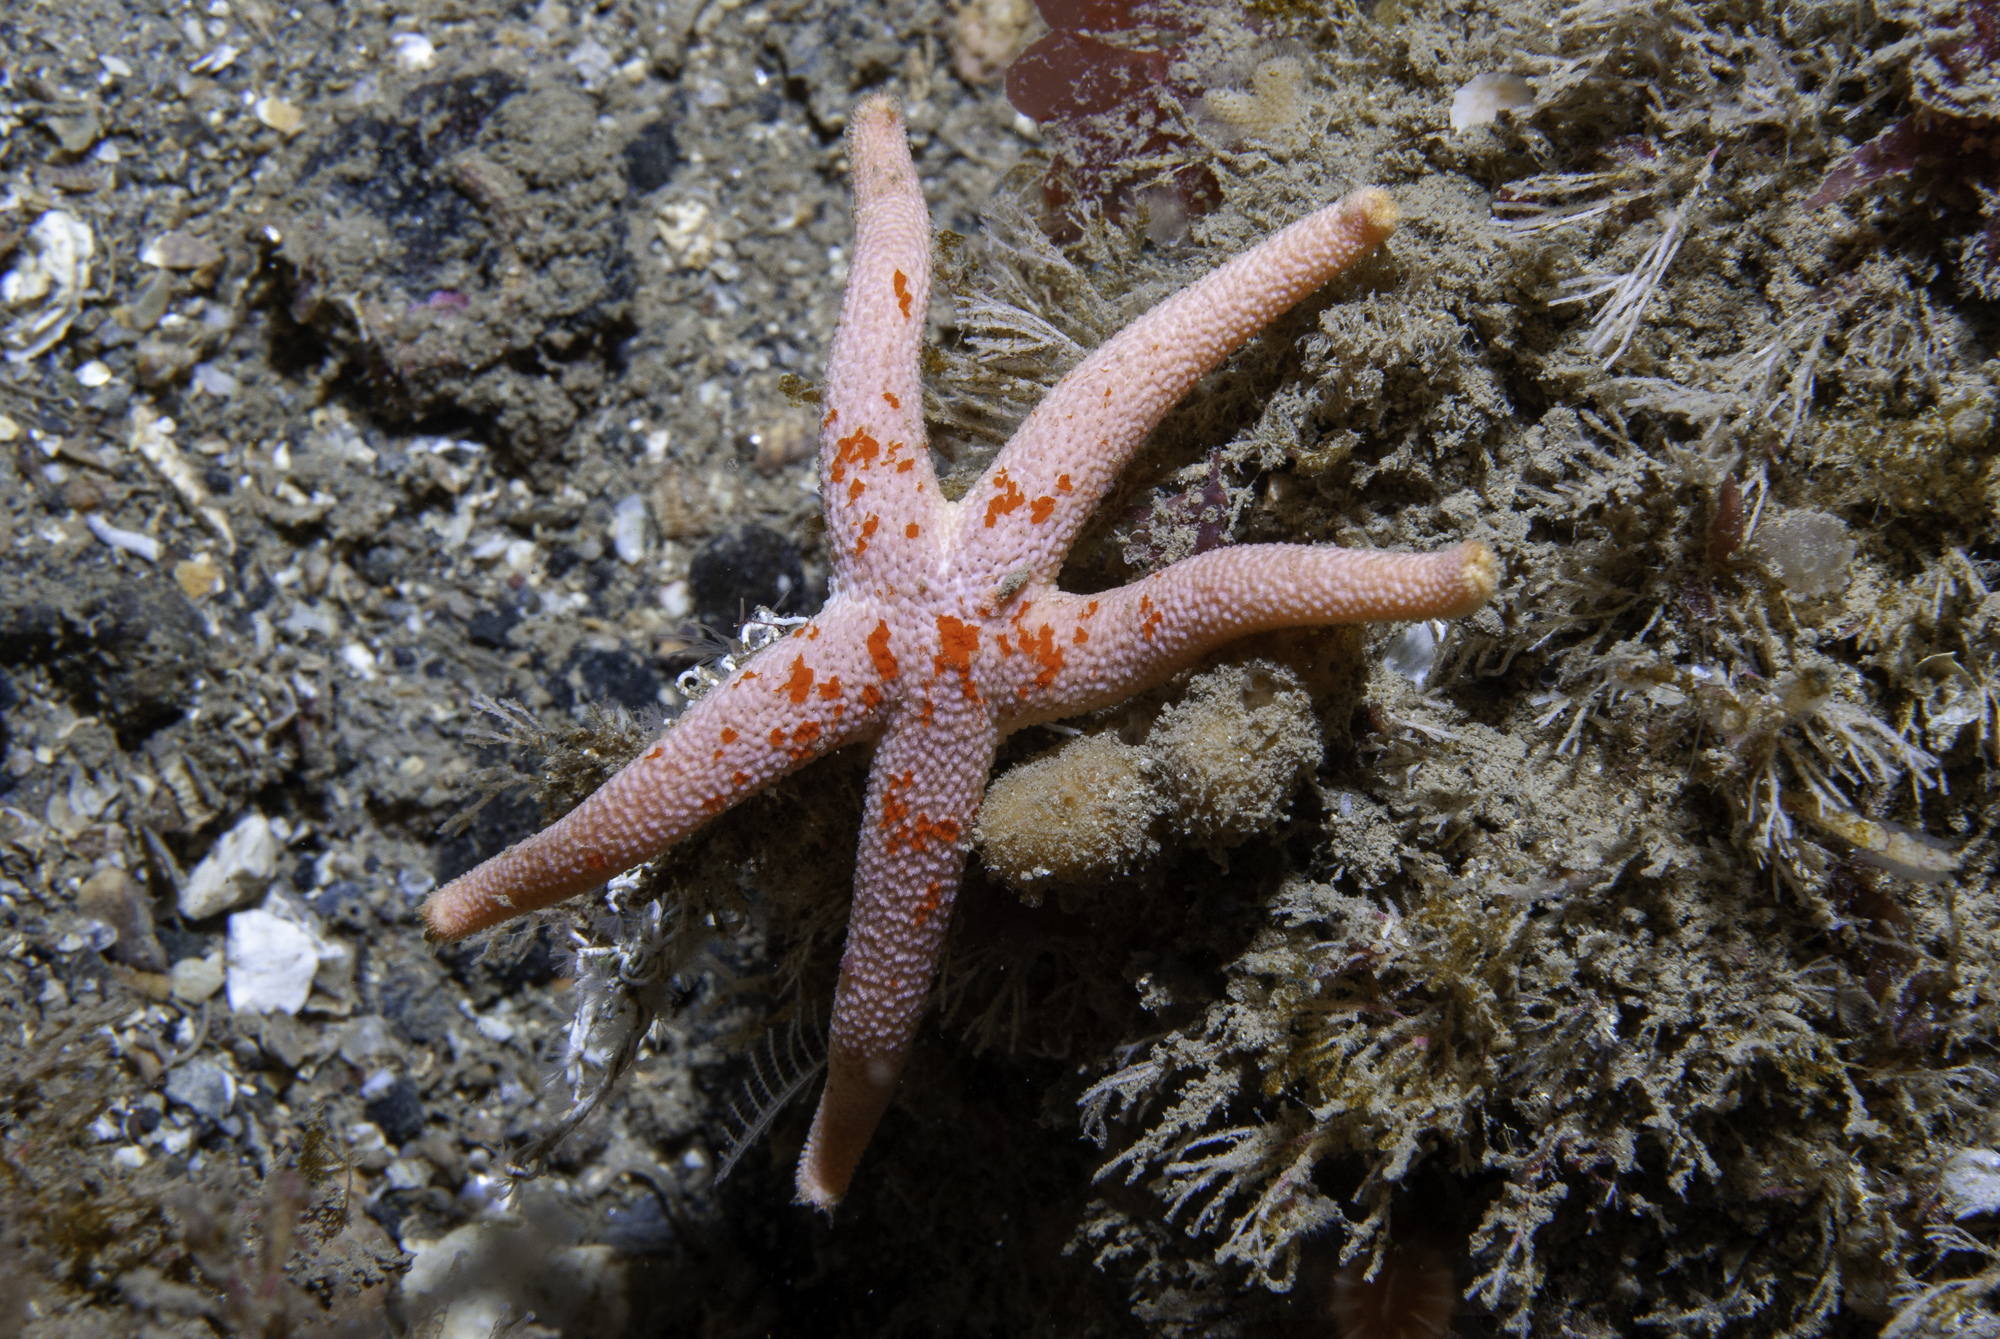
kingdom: Animalia
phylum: Echinodermata
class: Asteroidea
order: Spinulosida
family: Echinasteridae
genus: Henricia
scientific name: Henricia oculata
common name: Bloody henry starfish
